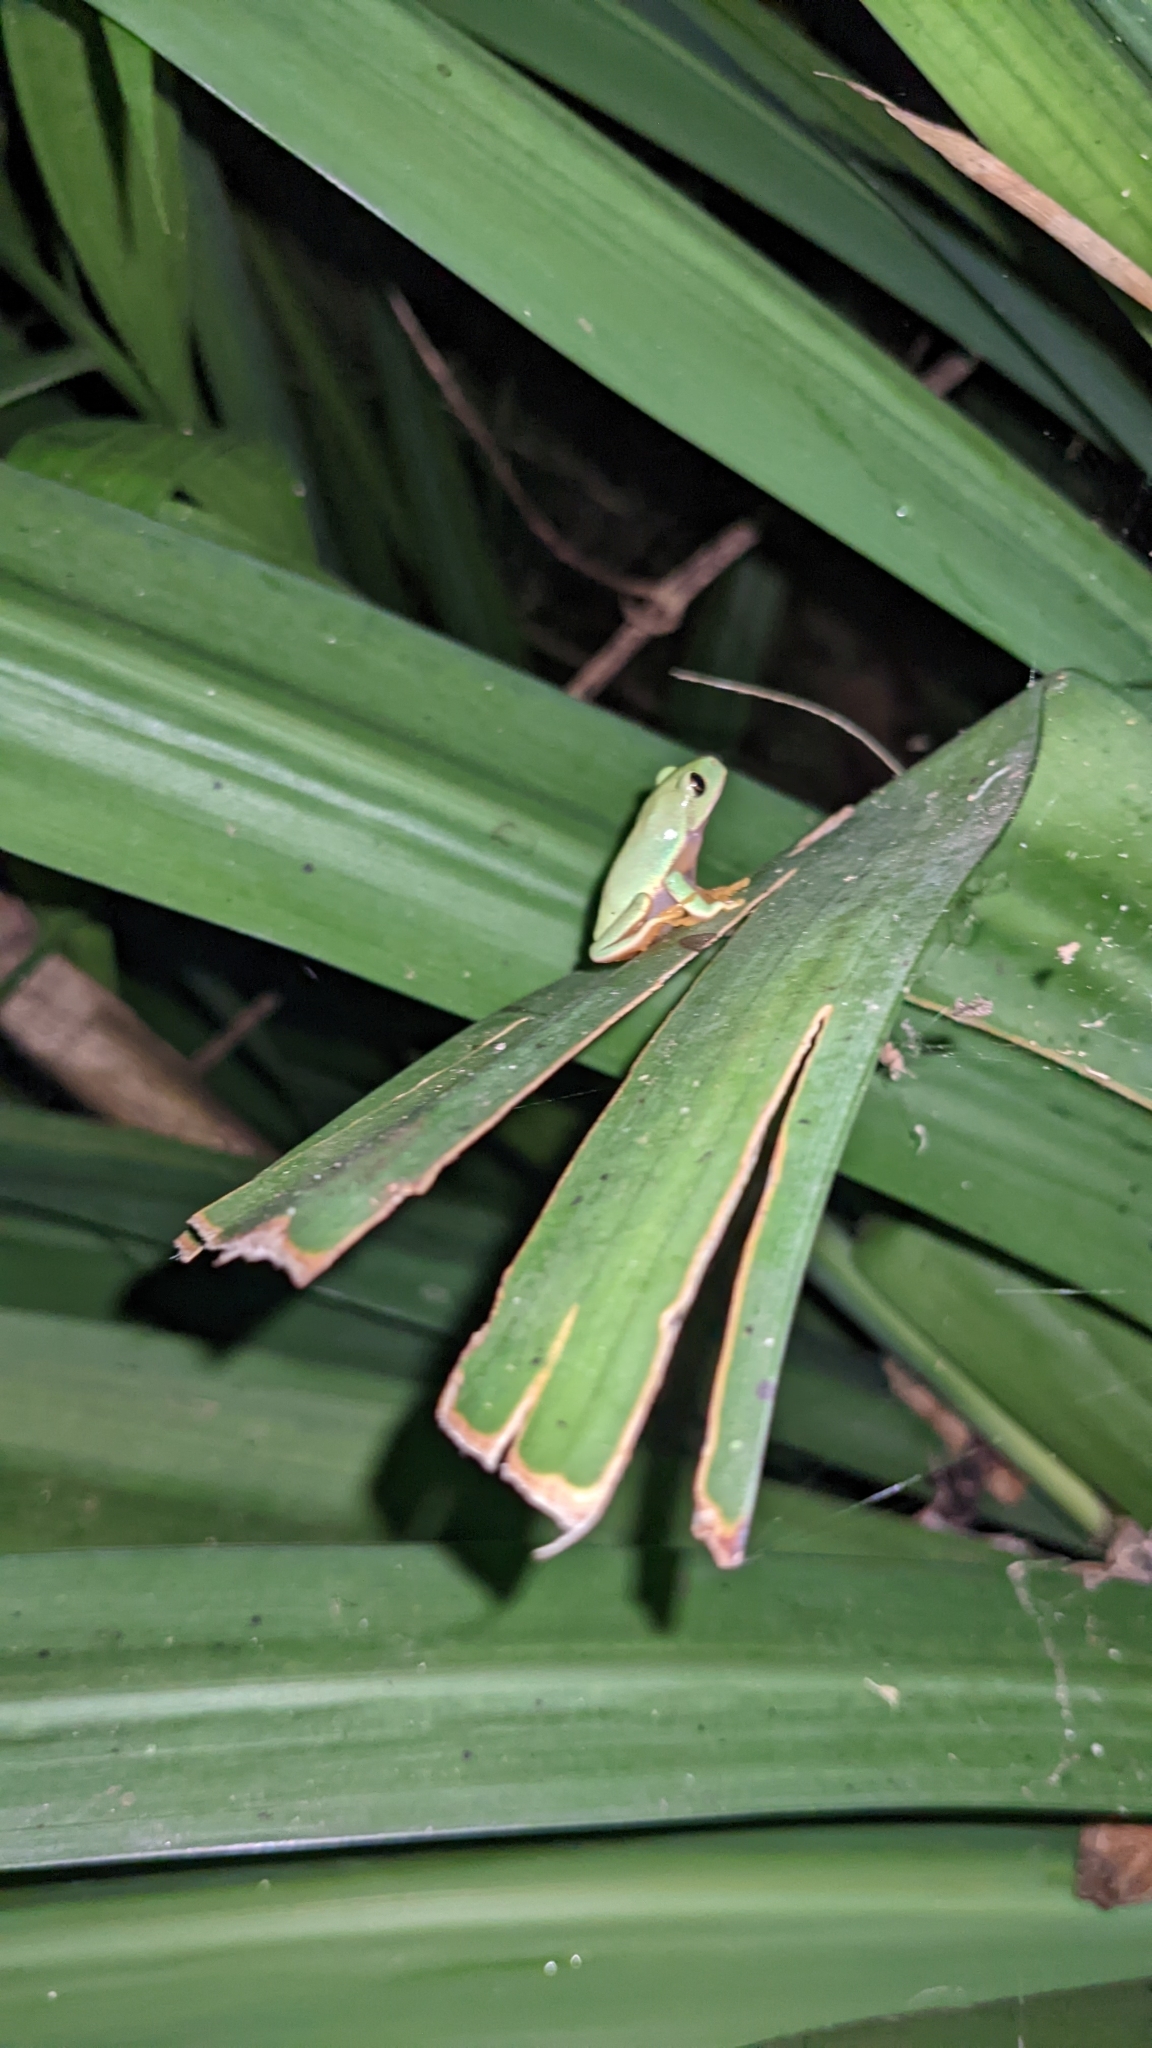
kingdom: Animalia
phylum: Chordata
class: Amphibia
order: Anura
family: Phyllomedusidae
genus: Agalychnis
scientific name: Agalychnis annae
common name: Blue-sided treefrog
